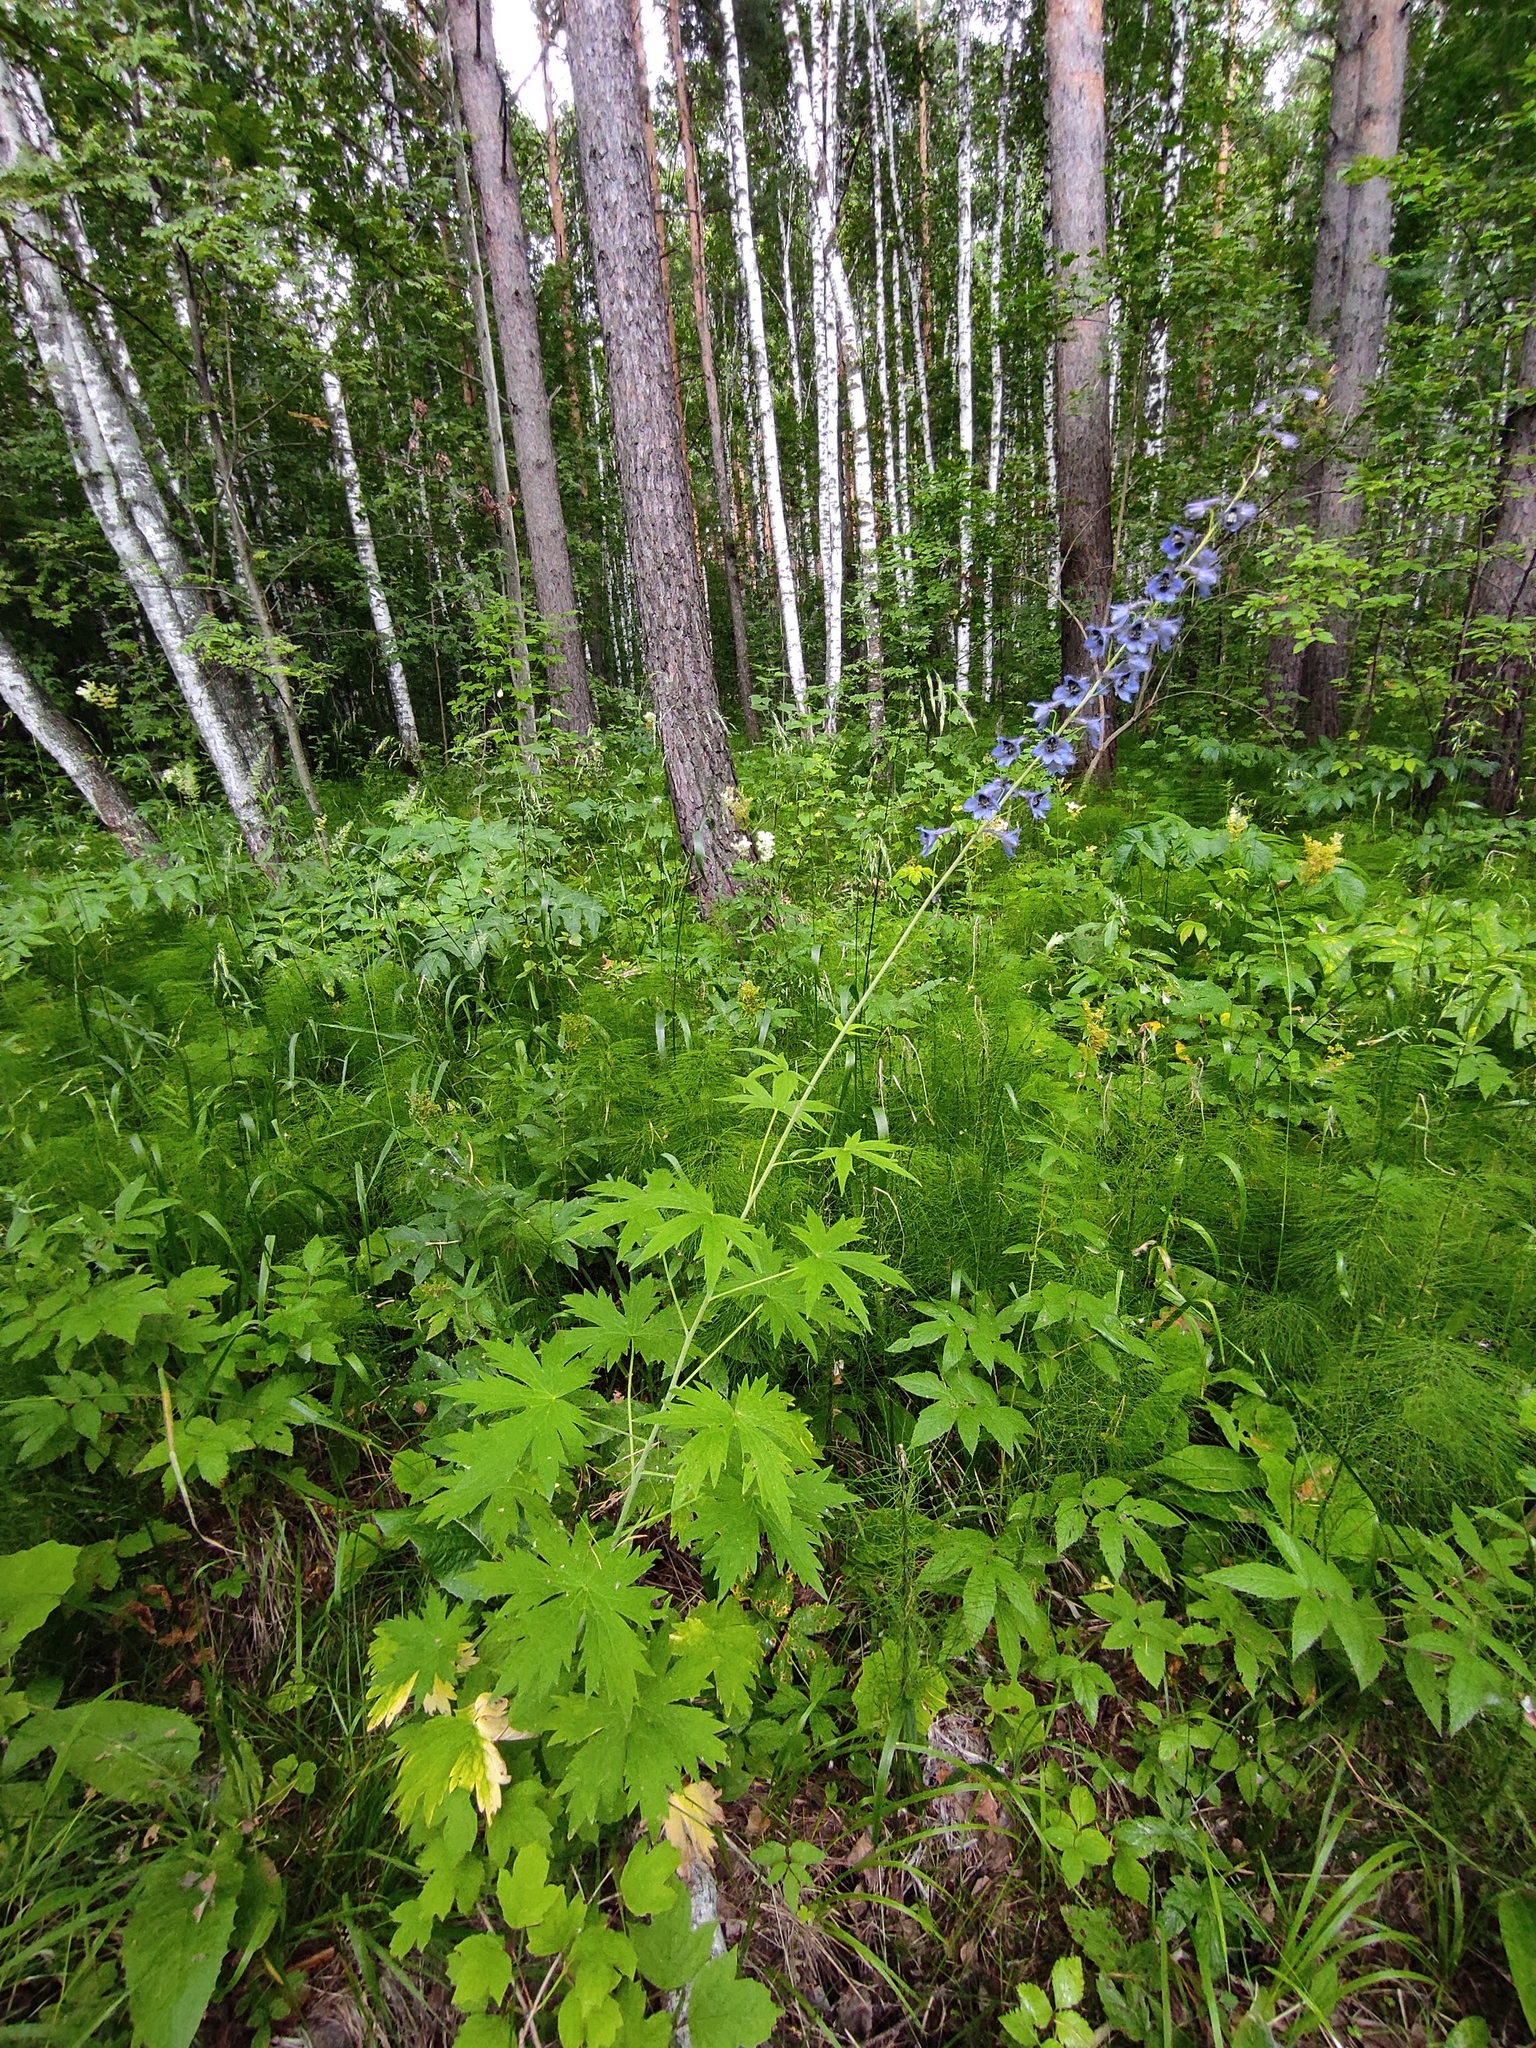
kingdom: Plantae
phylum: Tracheophyta
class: Magnoliopsida
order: Ranunculales
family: Ranunculaceae
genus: Delphinium
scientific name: Delphinium elatum
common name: Candle larkspur
